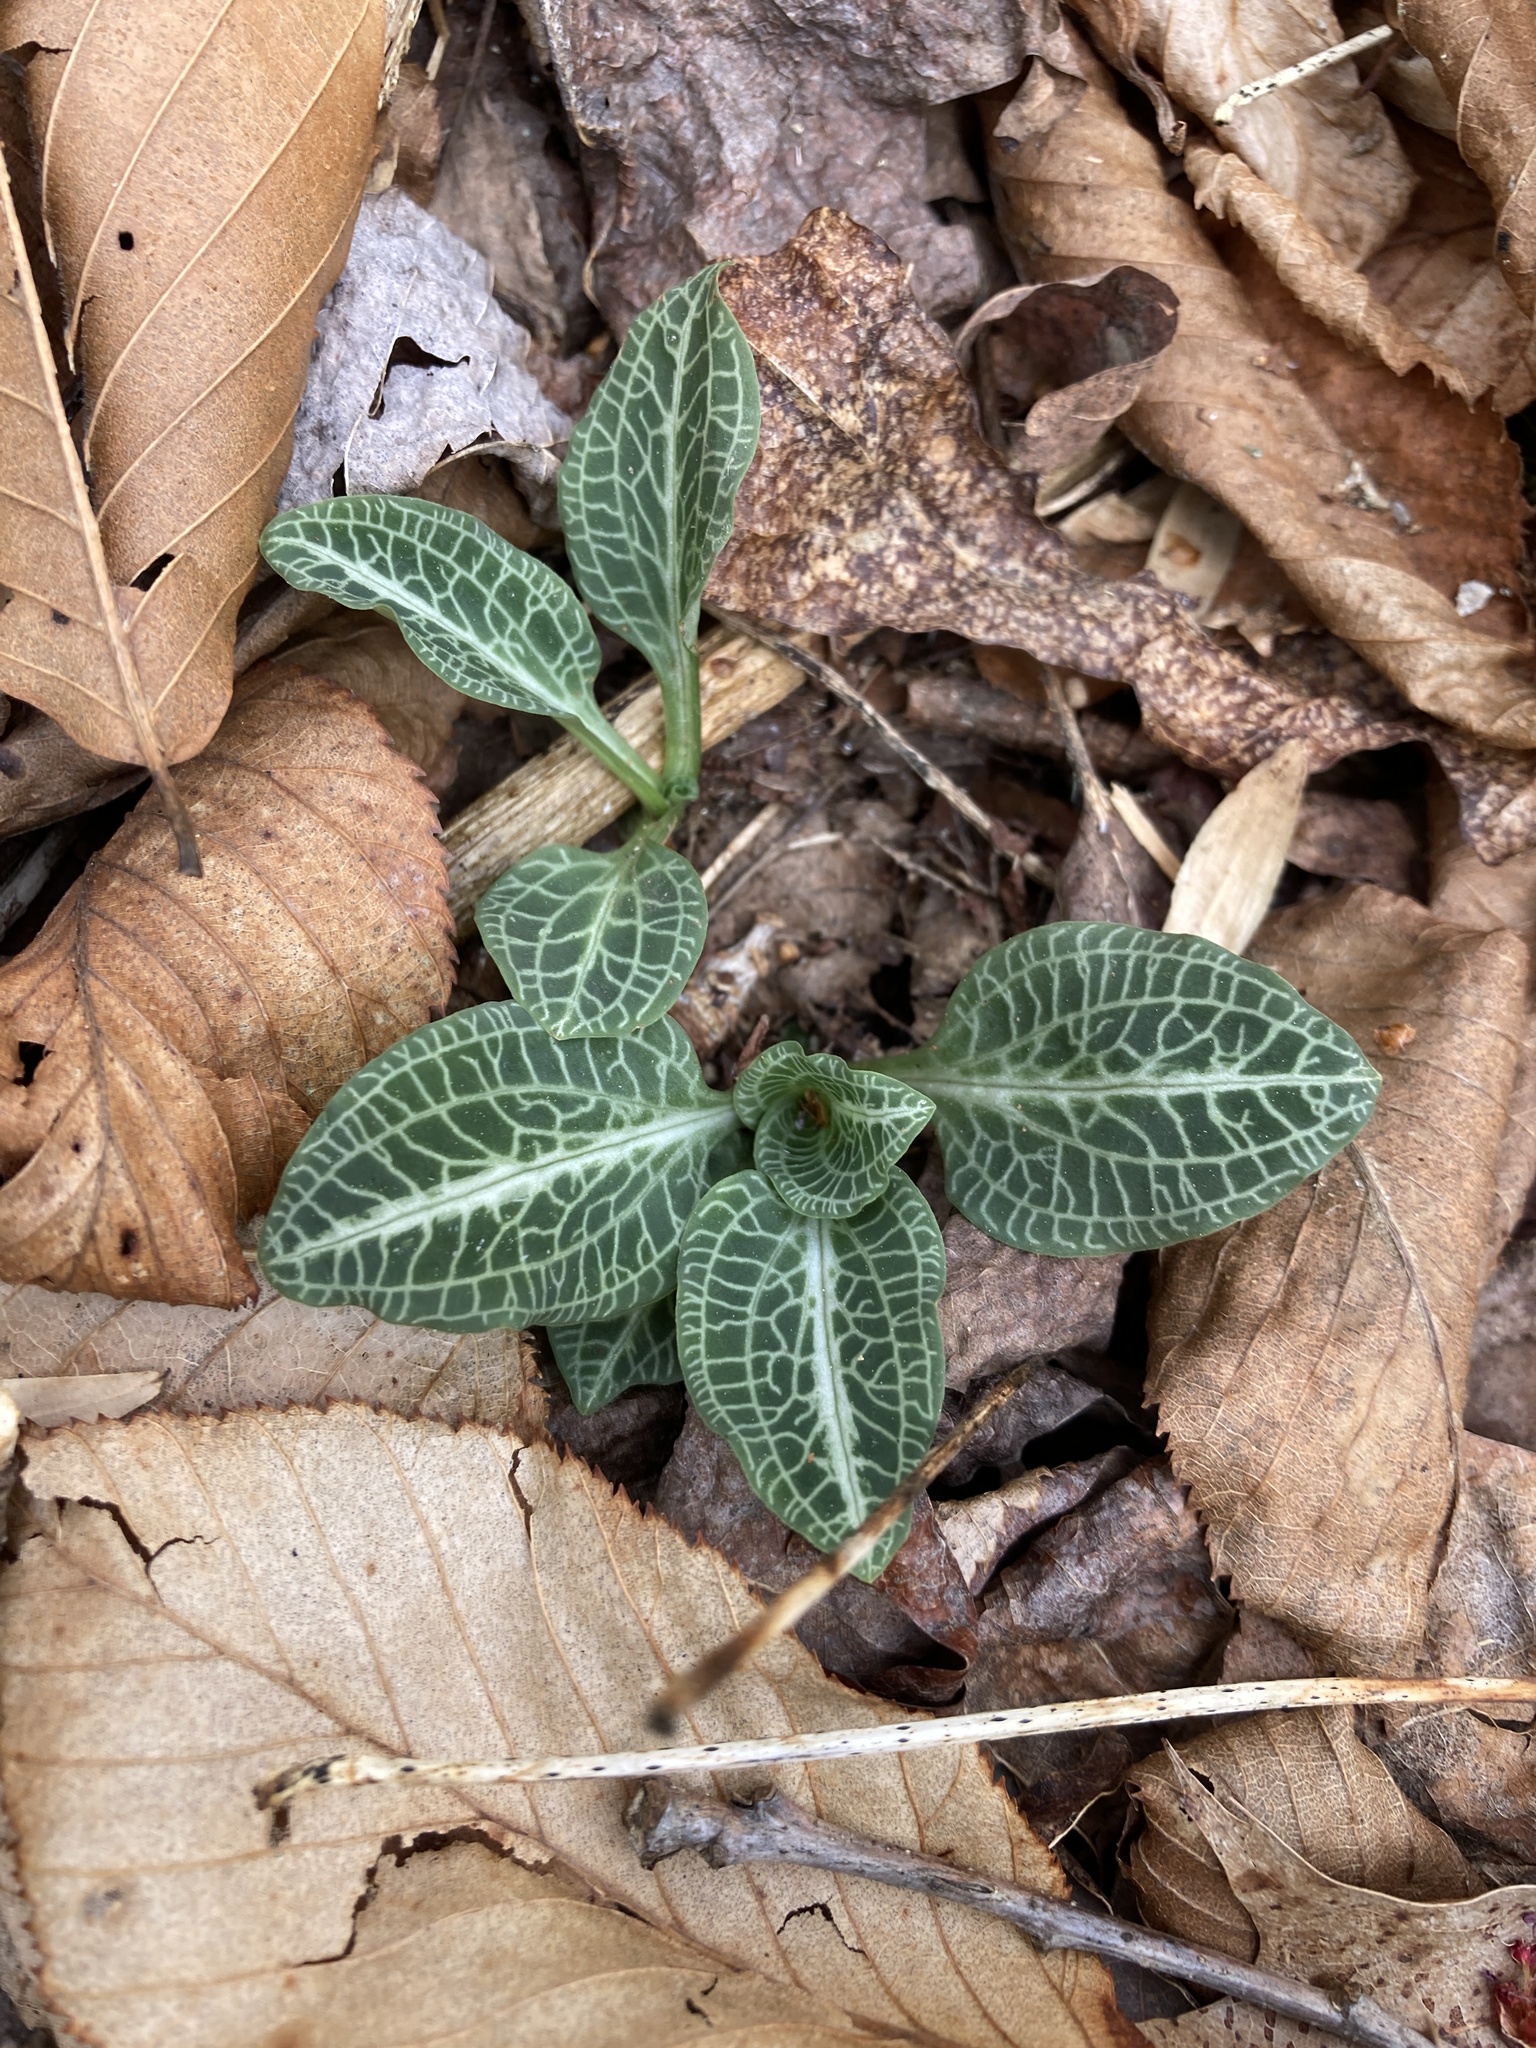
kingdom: Plantae
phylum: Tracheophyta
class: Liliopsida
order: Asparagales
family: Orchidaceae
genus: Goodyera
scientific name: Goodyera pubescens
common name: Downy rattlesnake-plantain
